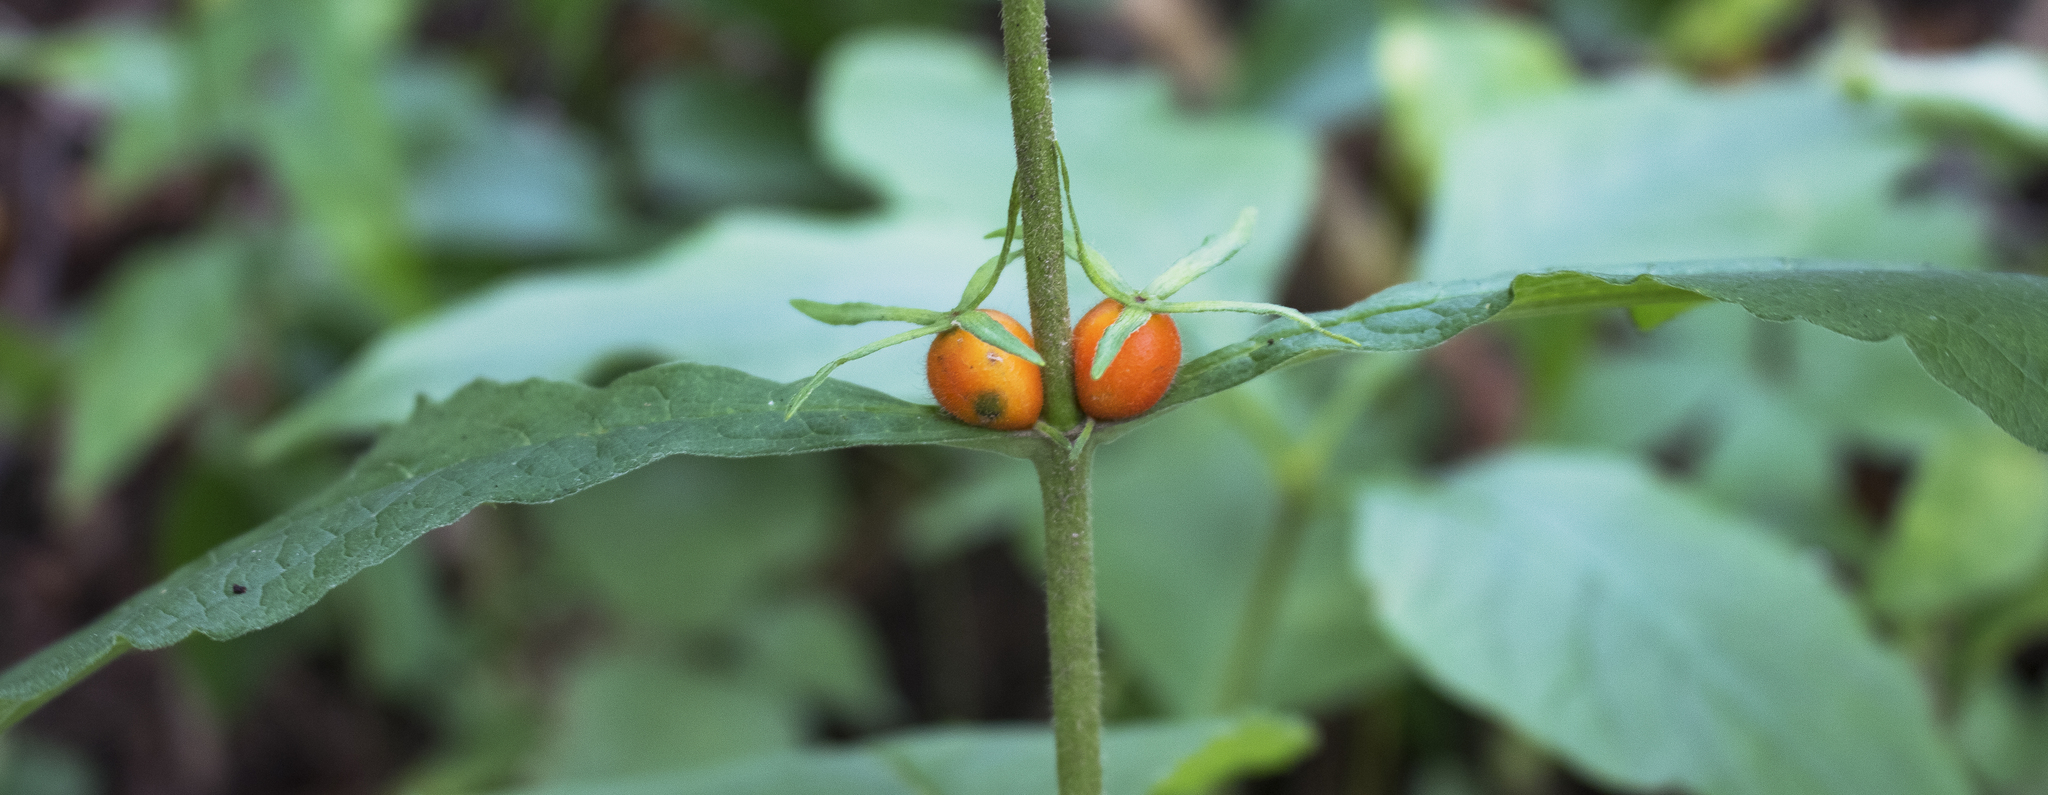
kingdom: Plantae
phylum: Tracheophyta
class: Magnoliopsida
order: Dipsacales
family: Caprifoliaceae
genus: Triosteum
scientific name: Triosteum aurantiacum
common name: Coffee tinker's-weed
